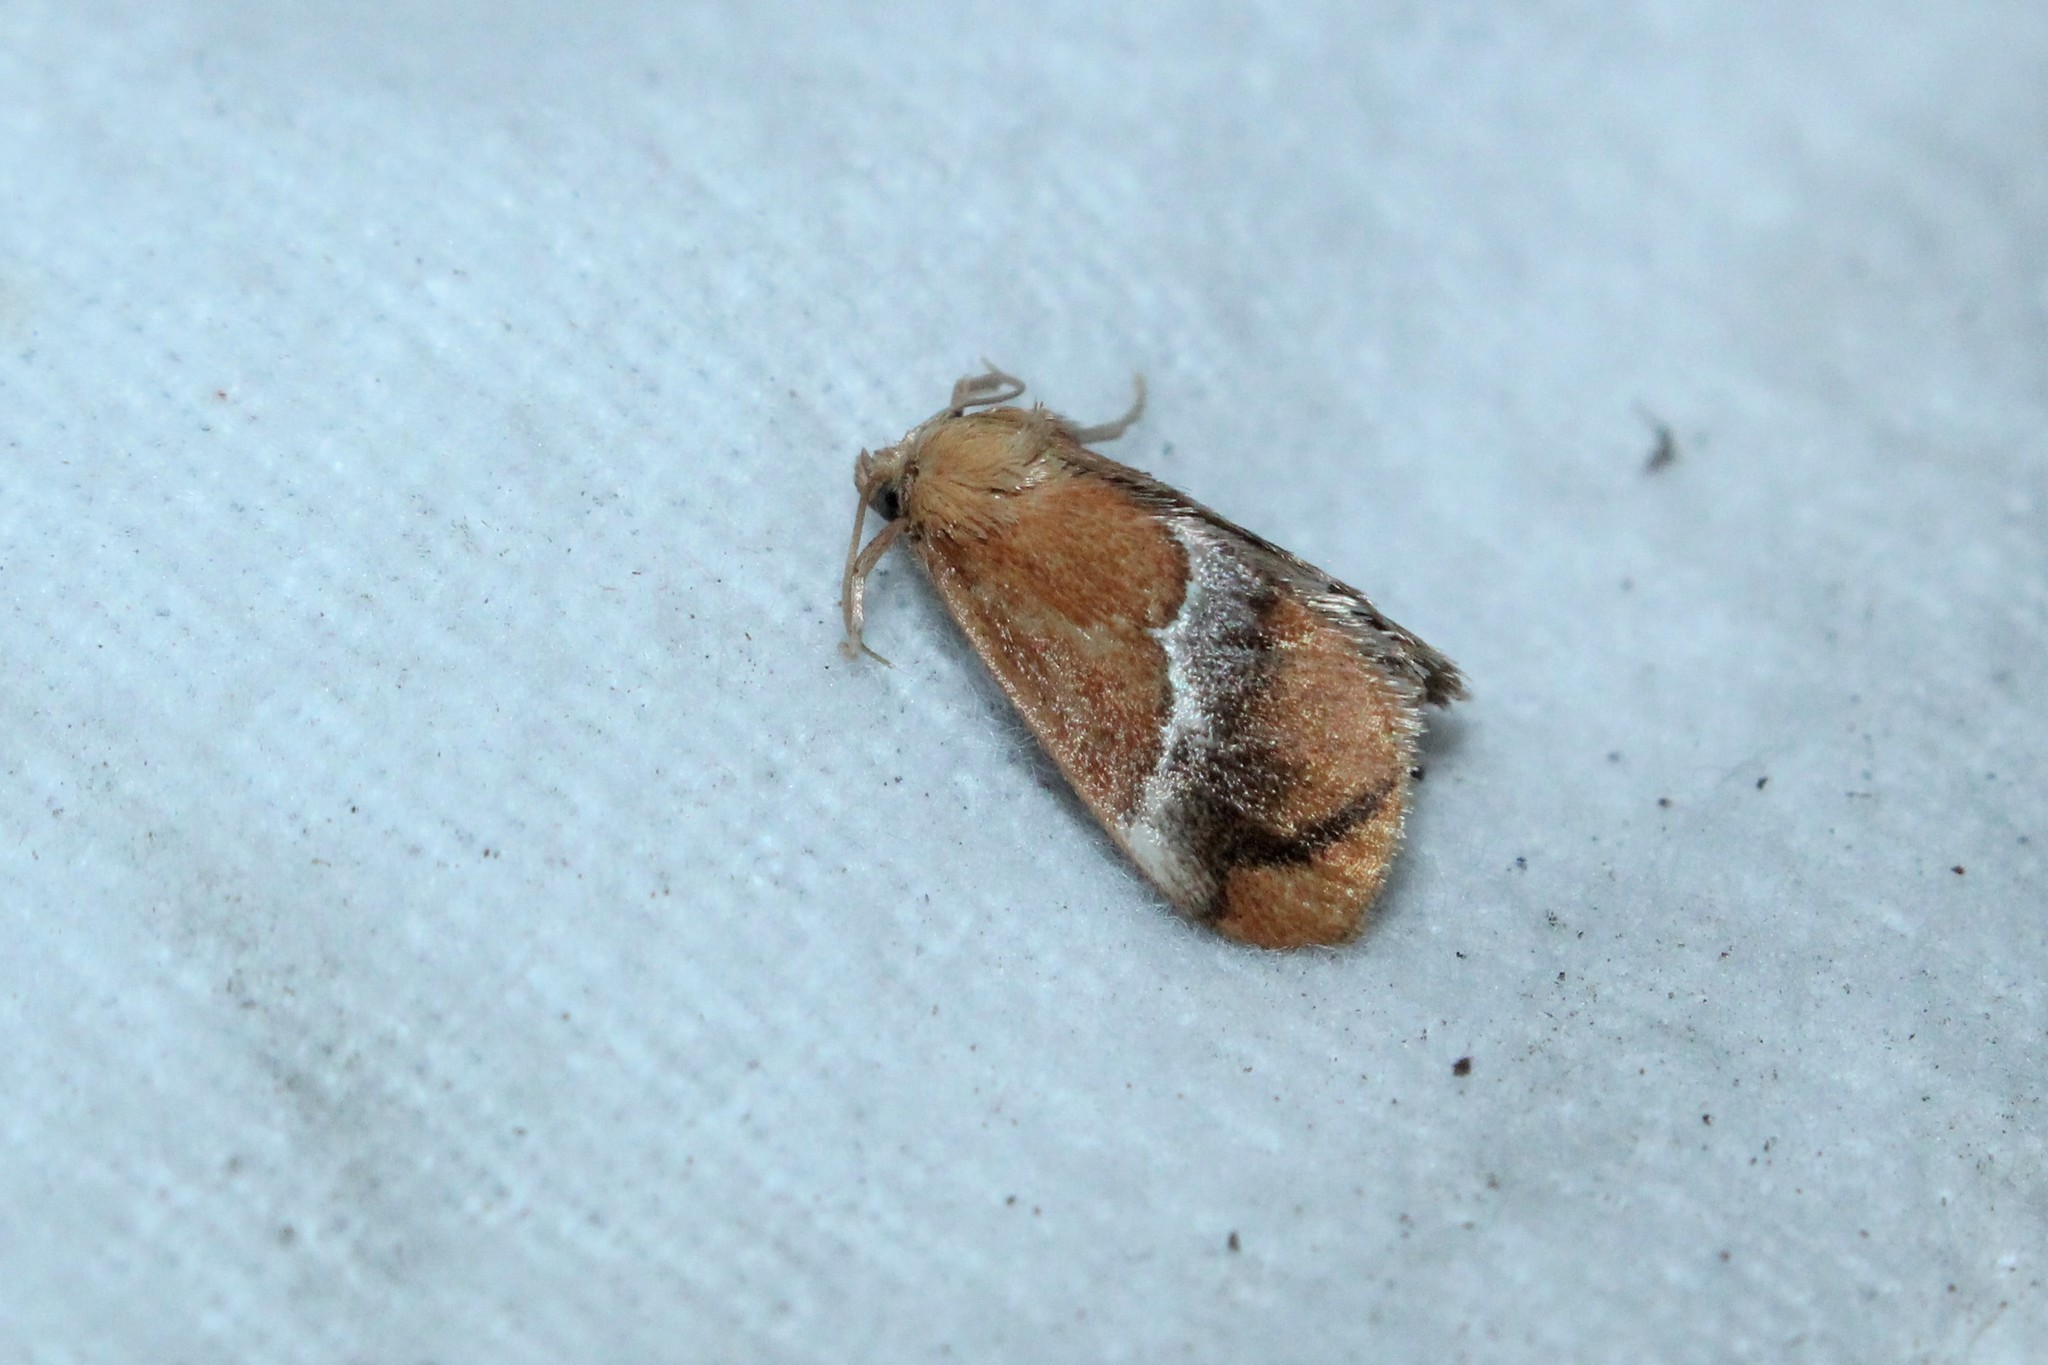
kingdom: Animalia
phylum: Arthropoda
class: Insecta
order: Lepidoptera
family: Limacodidae
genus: Lithacodes
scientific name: Lithacodes fasciola
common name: Yellow-shouldered slug moth
